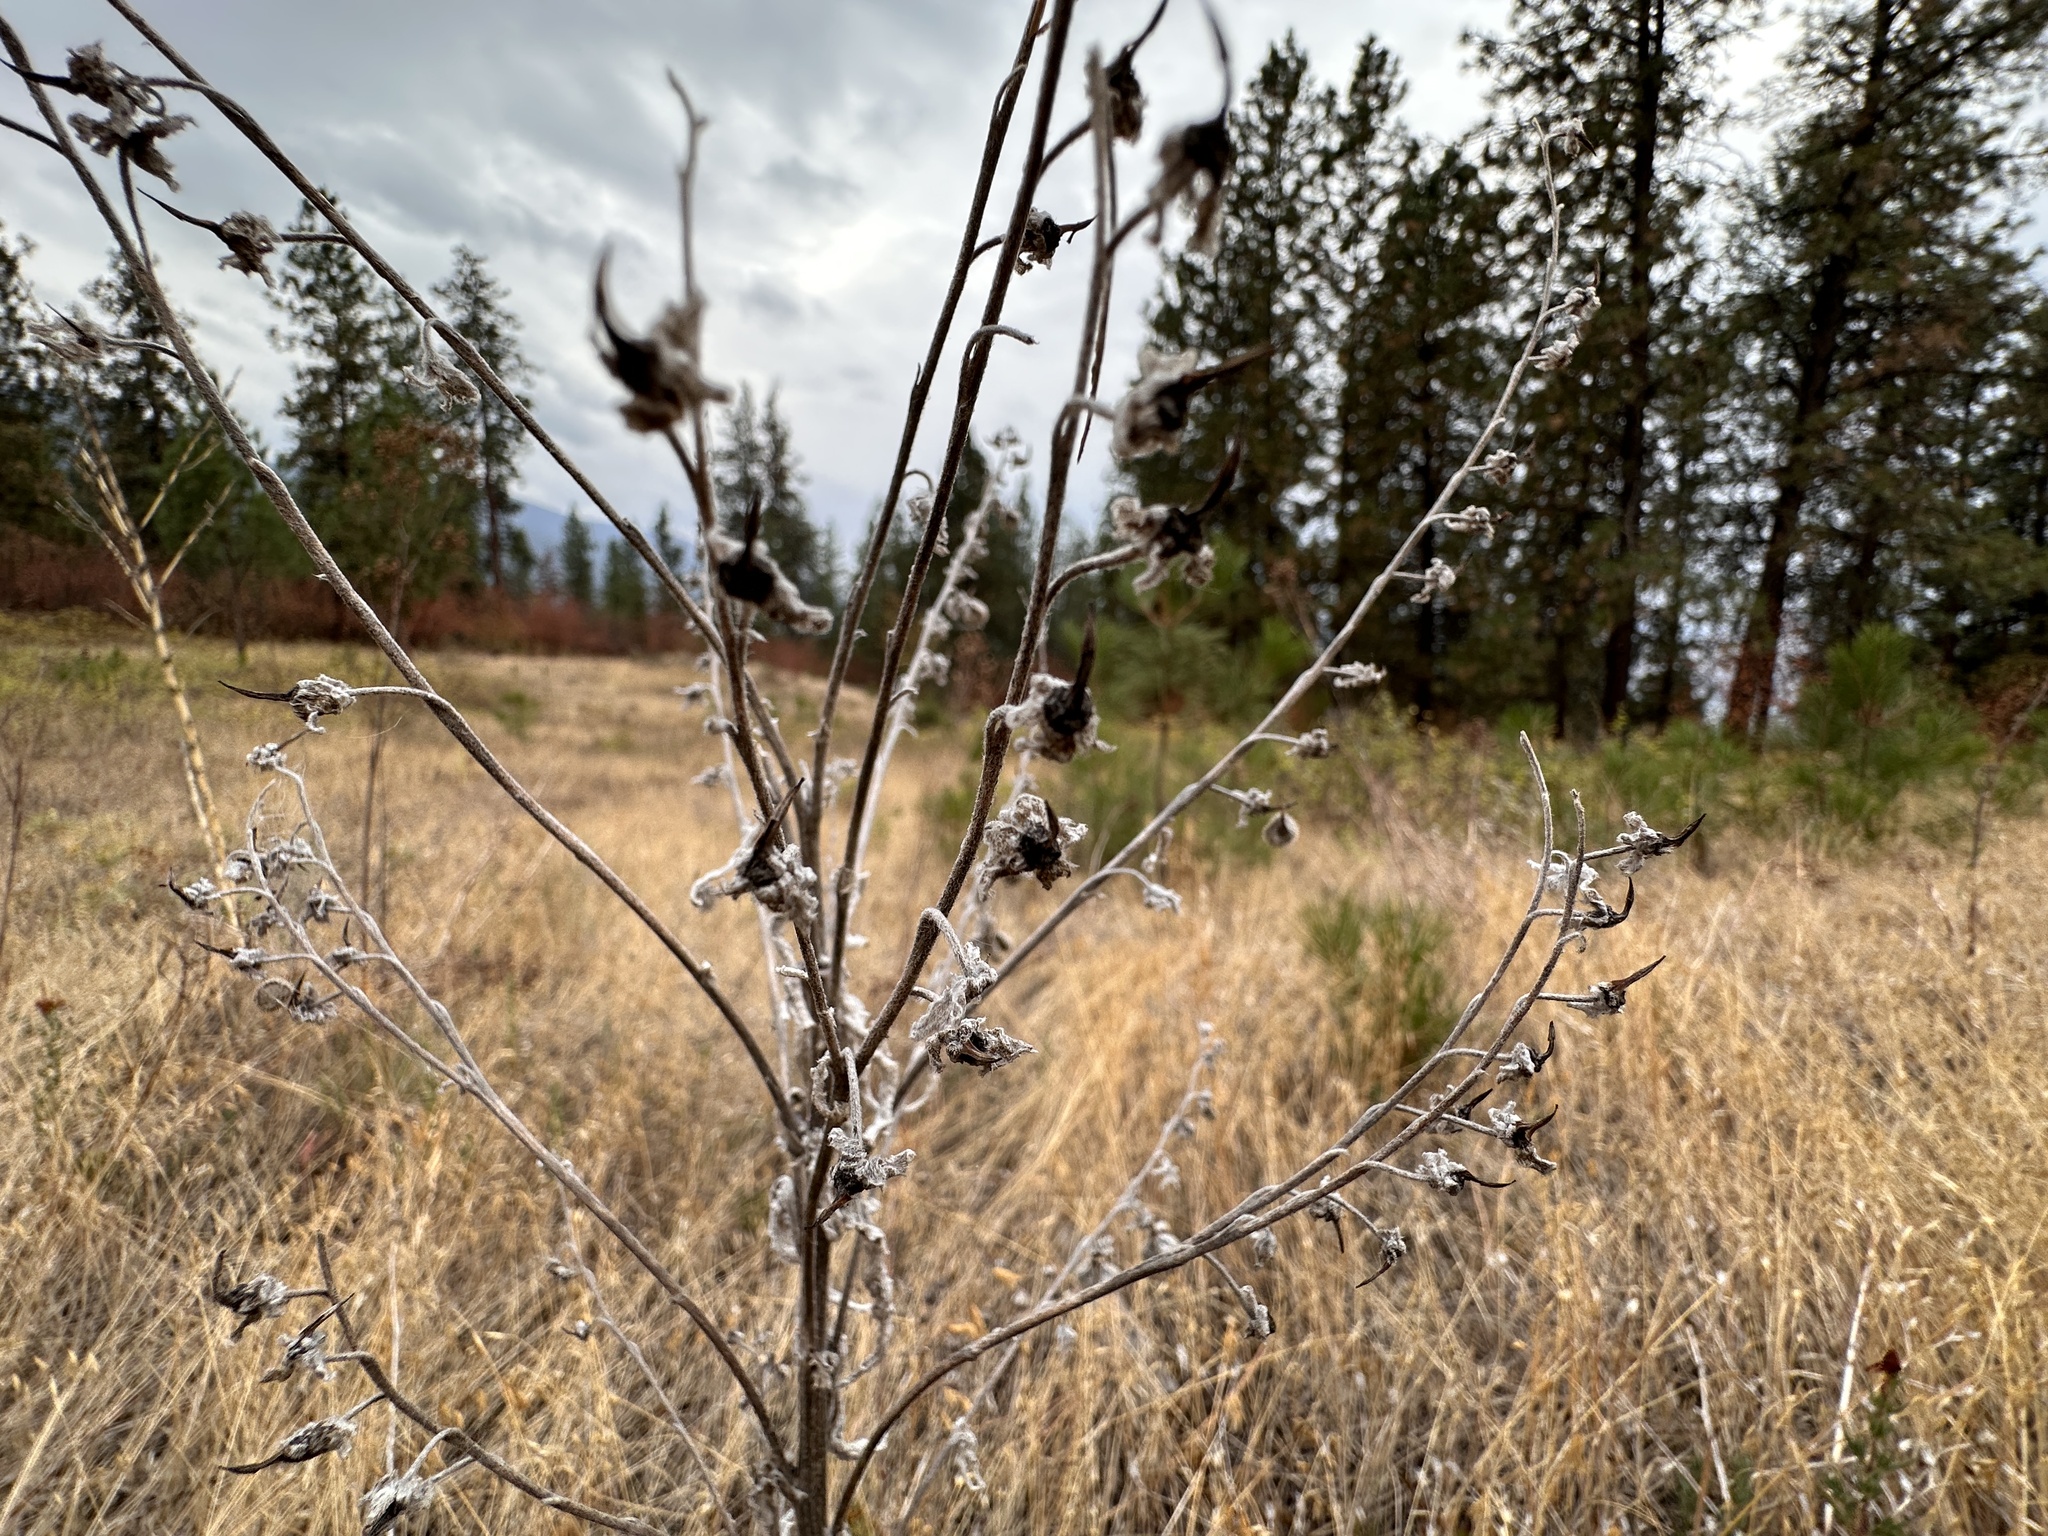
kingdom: Plantae
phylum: Tracheophyta
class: Magnoliopsida
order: Boraginales
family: Boraginaceae
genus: Cynoglossum
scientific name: Cynoglossum officinale
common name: Hound's-tongue
